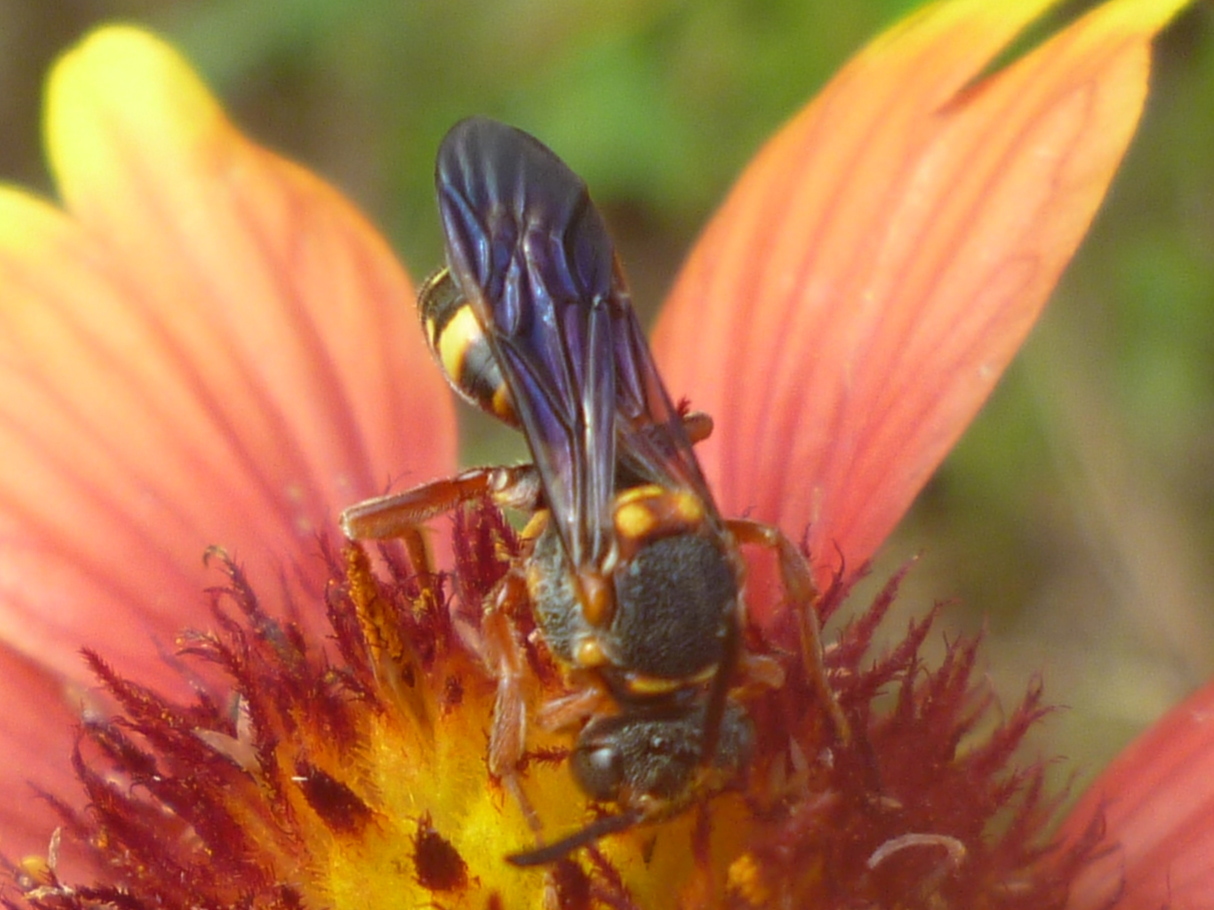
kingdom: Animalia
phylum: Arthropoda
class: Insecta
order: Hymenoptera
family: Apidae
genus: Nomada
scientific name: Nomada fervida
